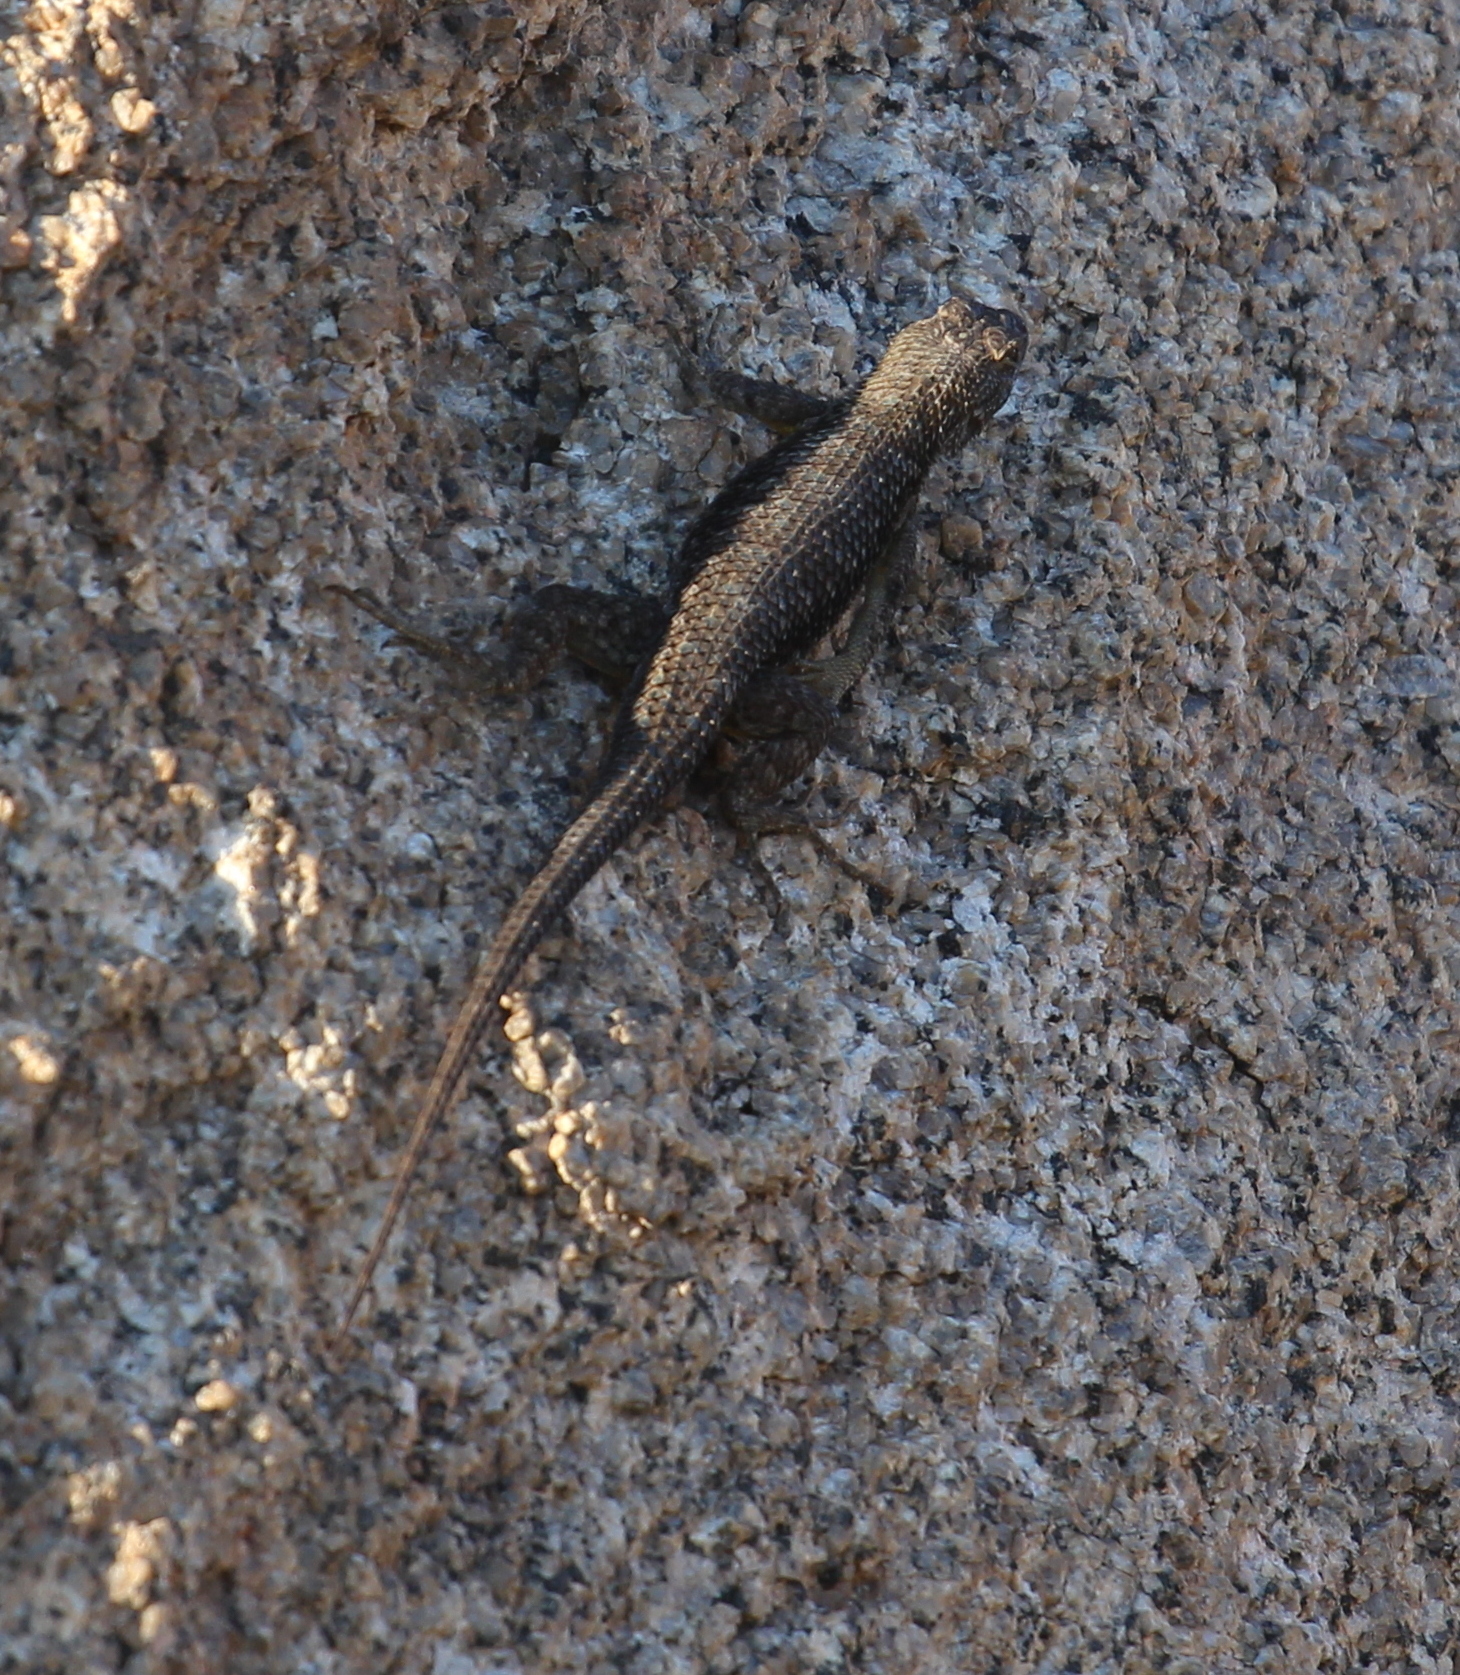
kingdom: Animalia
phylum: Chordata
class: Squamata
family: Phrynosomatidae
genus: Sceloporus
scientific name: Sceloporus occidentalis
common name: Western fence lizard
